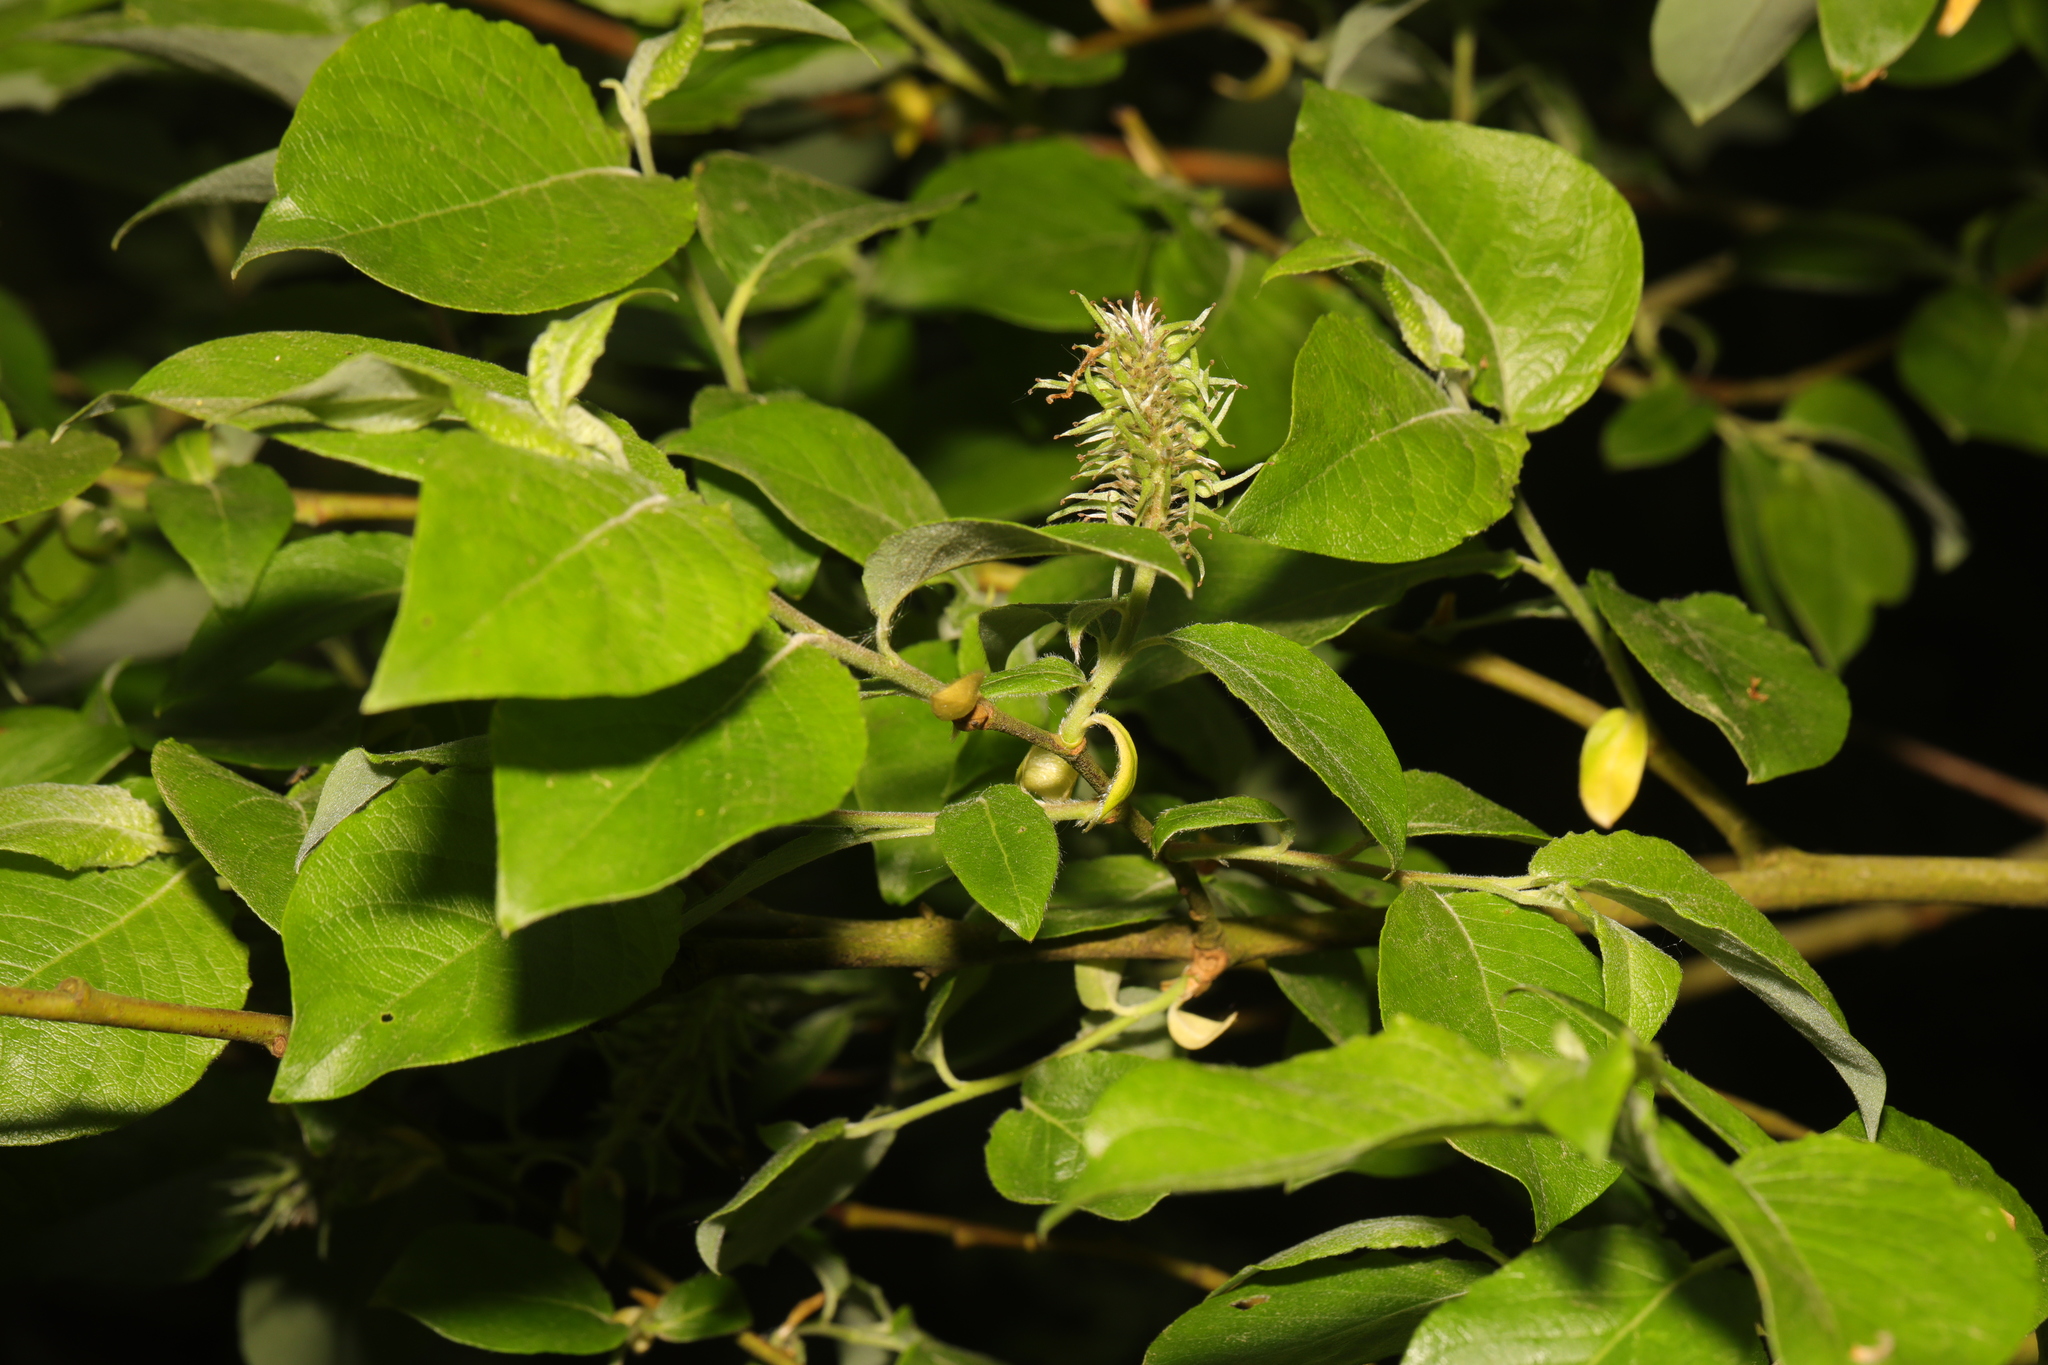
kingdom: Plantae
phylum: Tracheophyta
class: Magnoliopsida
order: Malpighiales
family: Salicaceae
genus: Salix
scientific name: Salix caprea
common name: Goat willow
